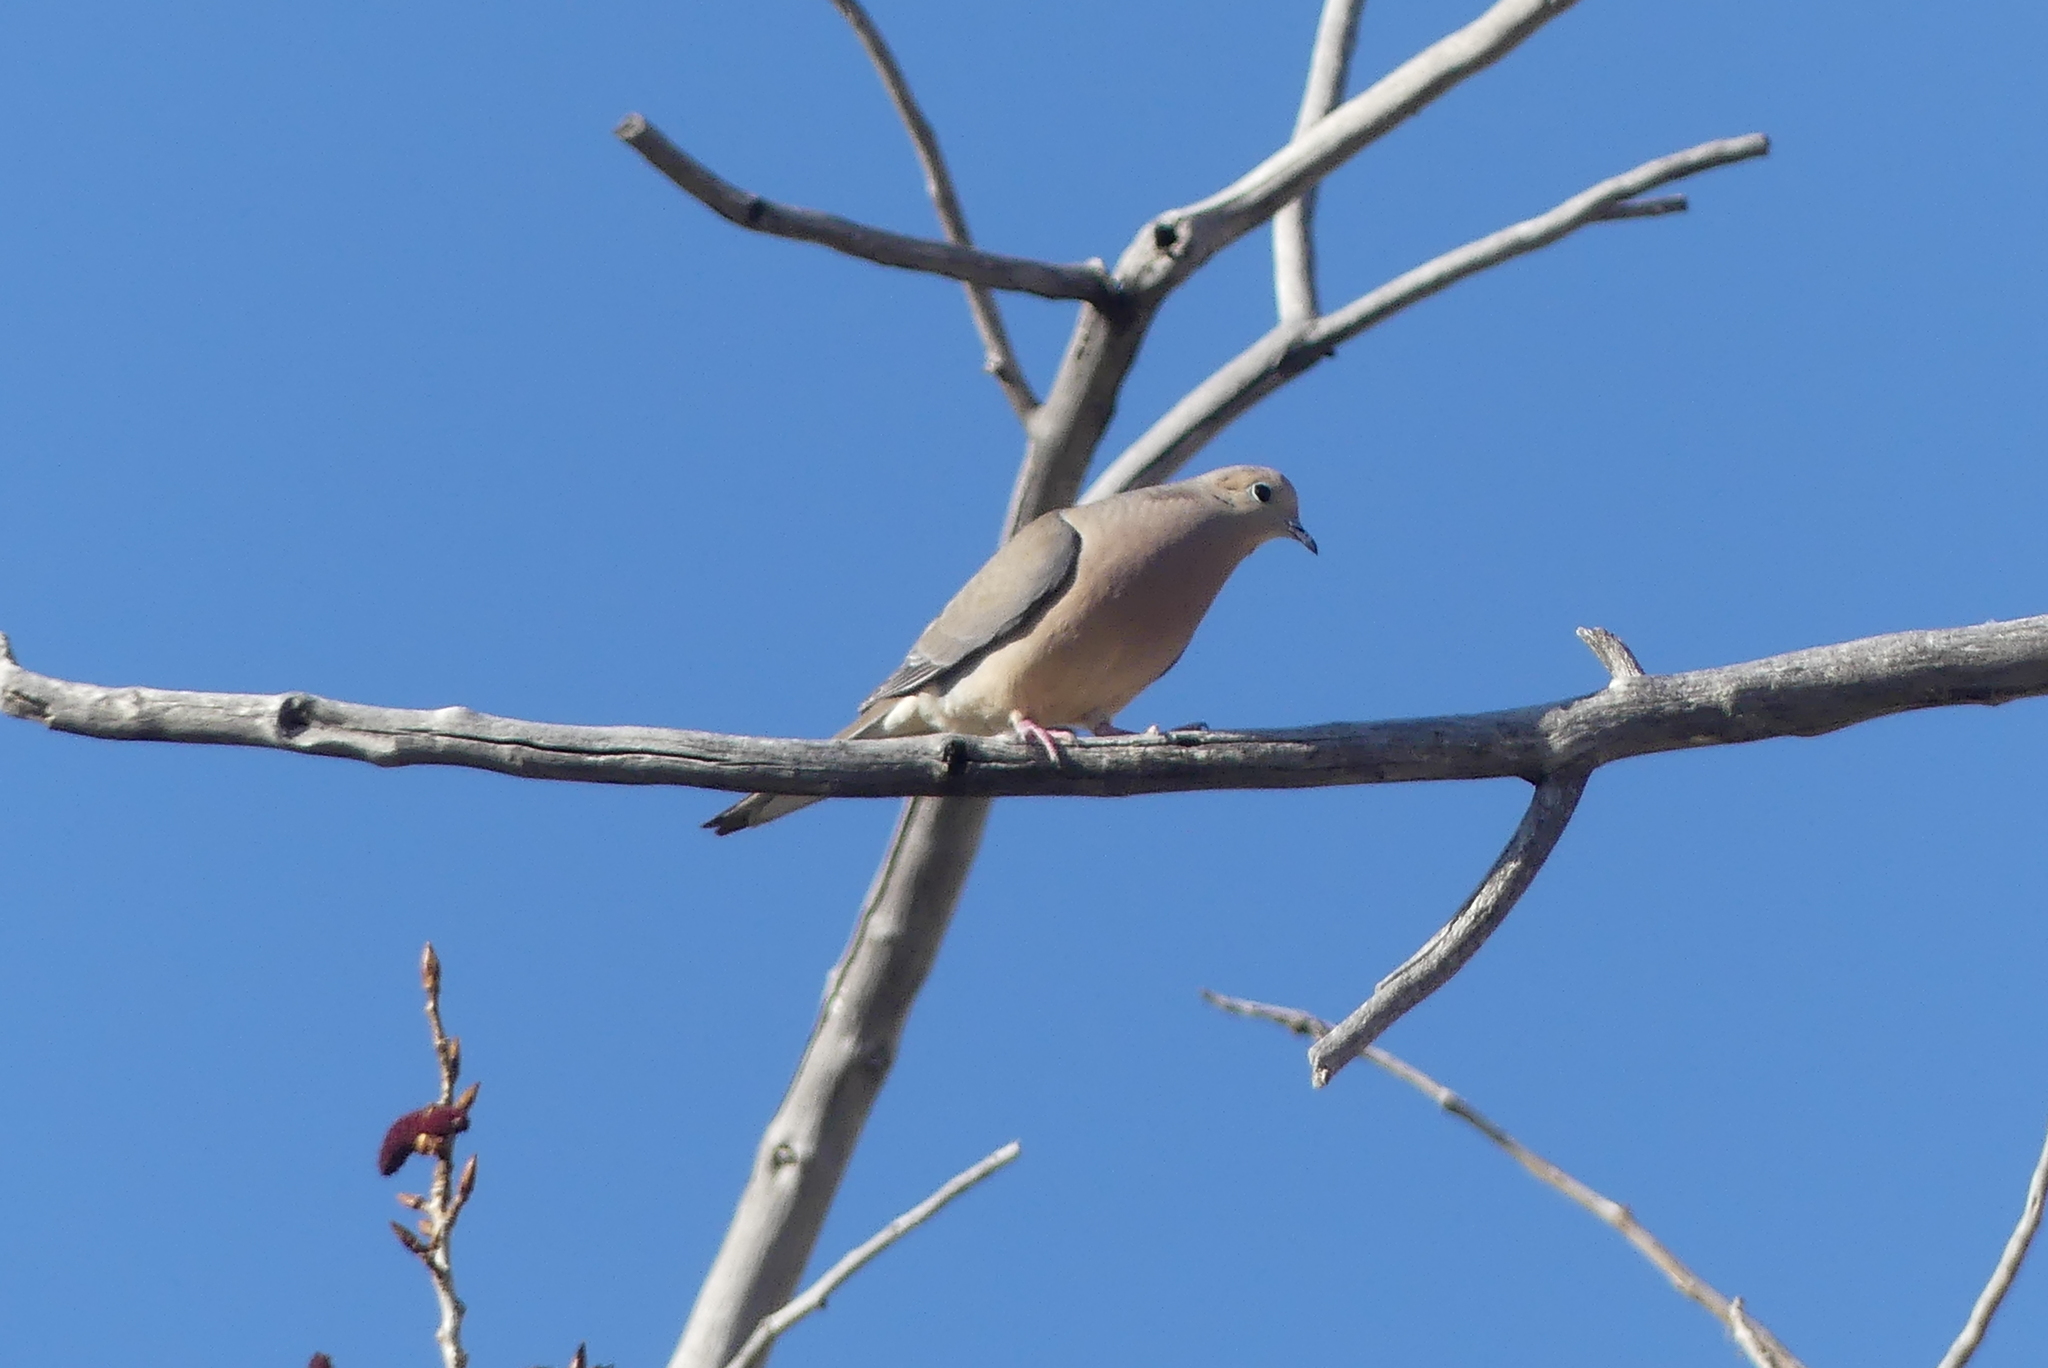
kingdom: Animalia
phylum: Chordata
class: Aves
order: Columbiformes
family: Columbidae
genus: Zenaida
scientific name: Zenaida macroura
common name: Mourning dove
